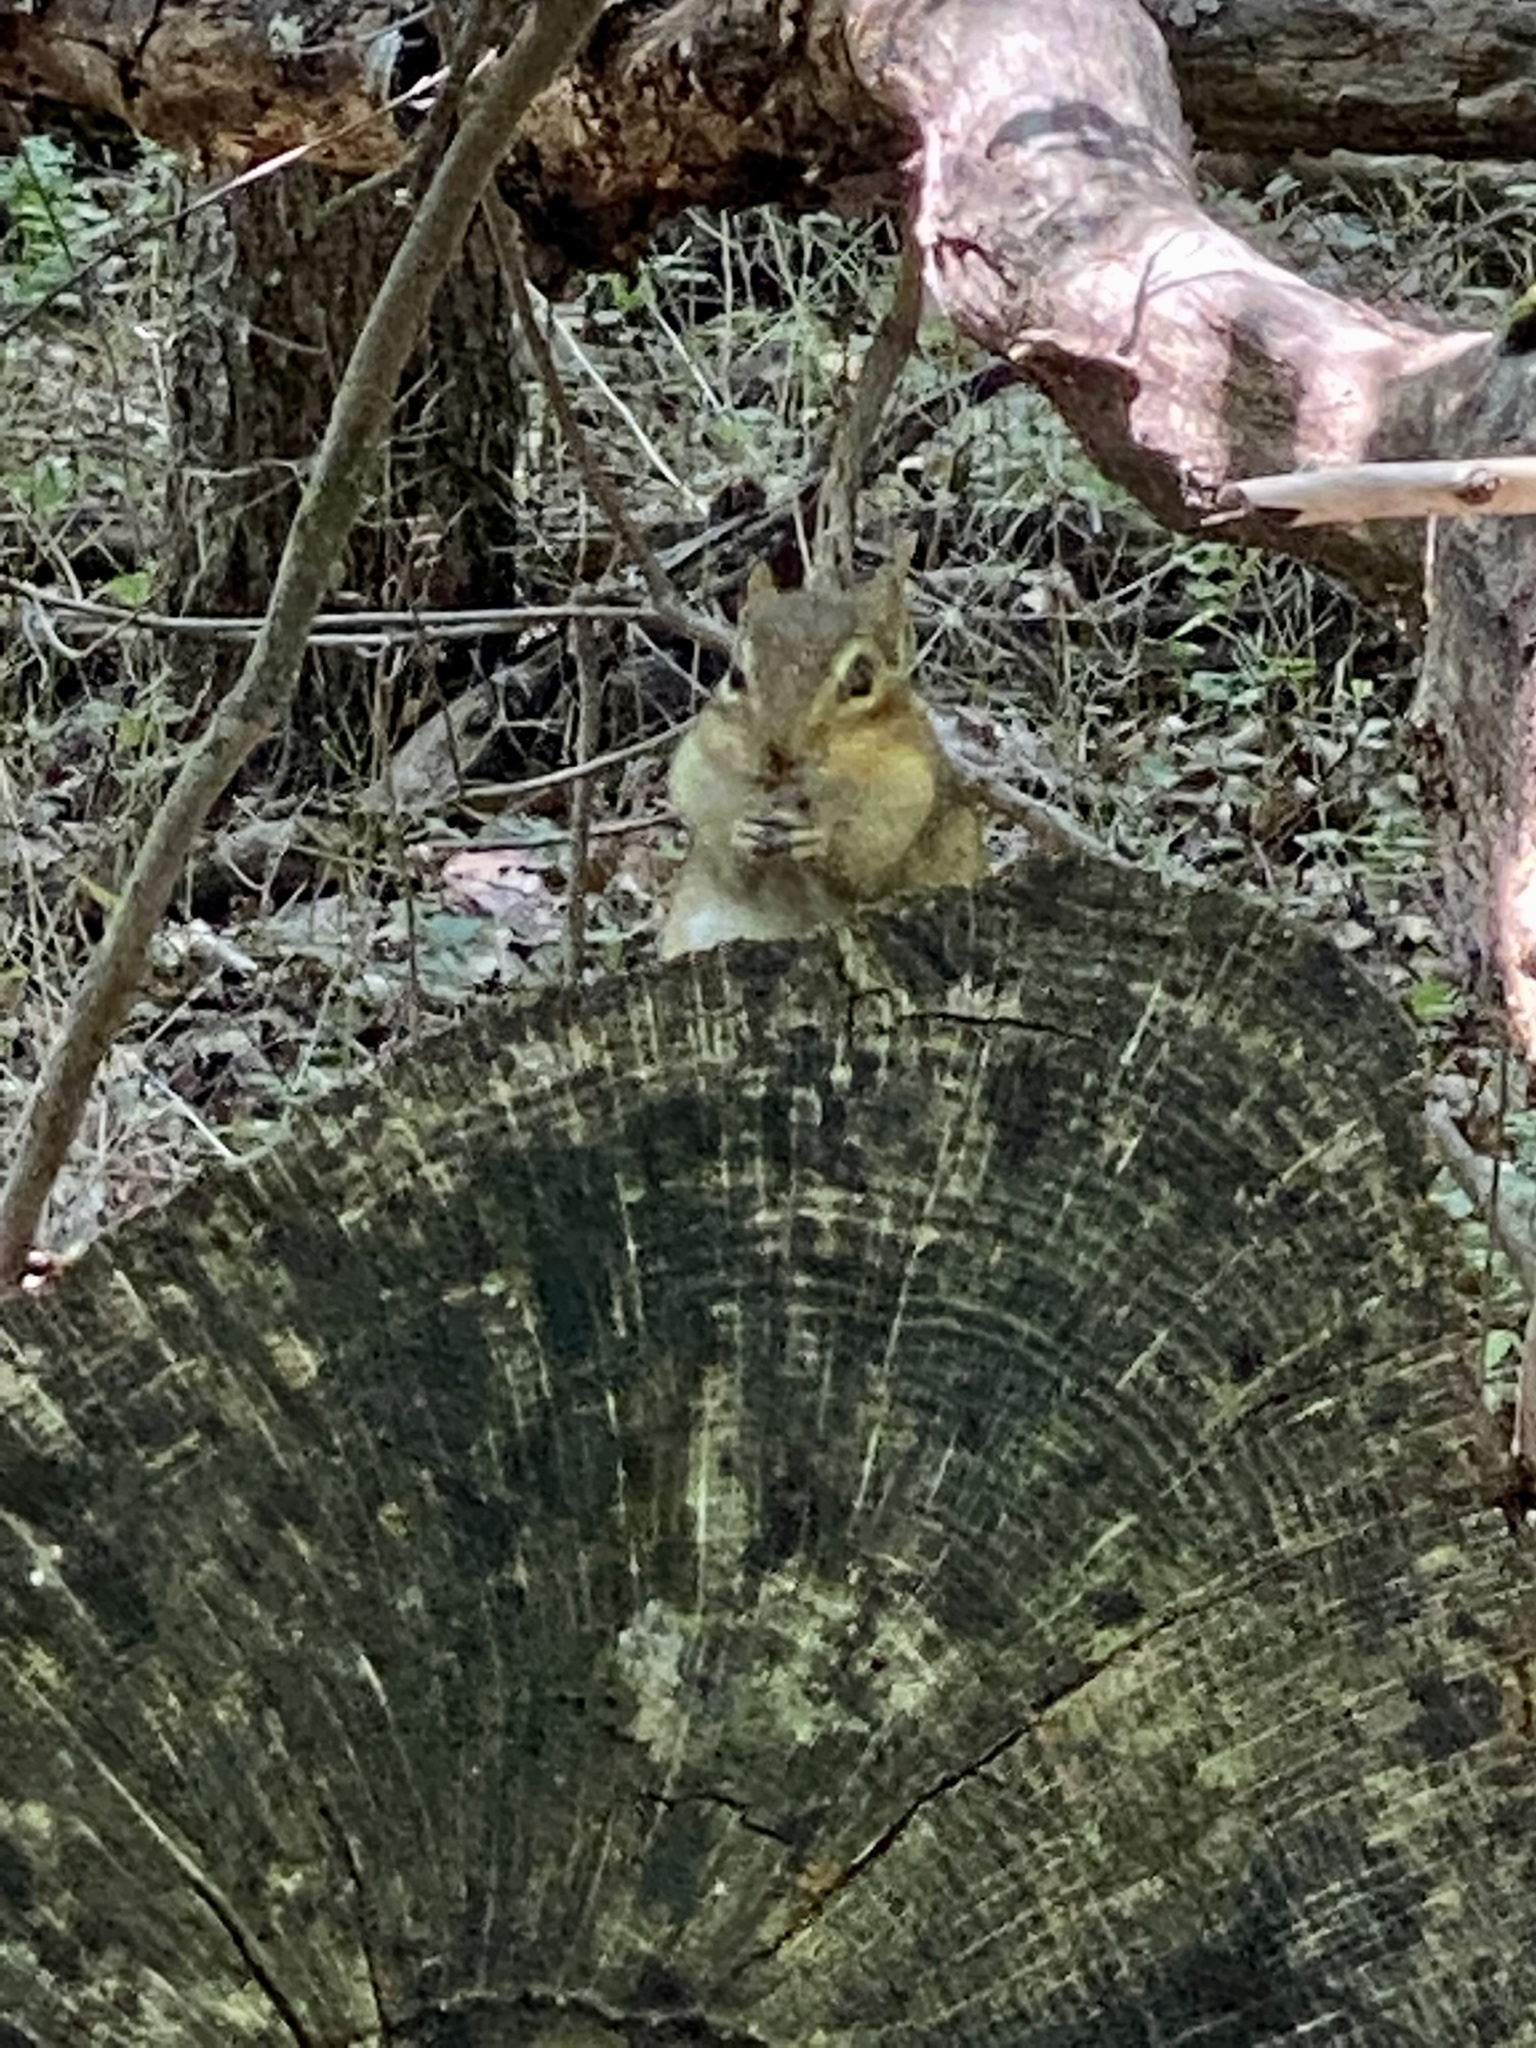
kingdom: Animalia
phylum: Chordata
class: Mammalia
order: Rodentia
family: Sciuridae
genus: Tamias
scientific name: Tamias striatus
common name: Eastern chipmunk
